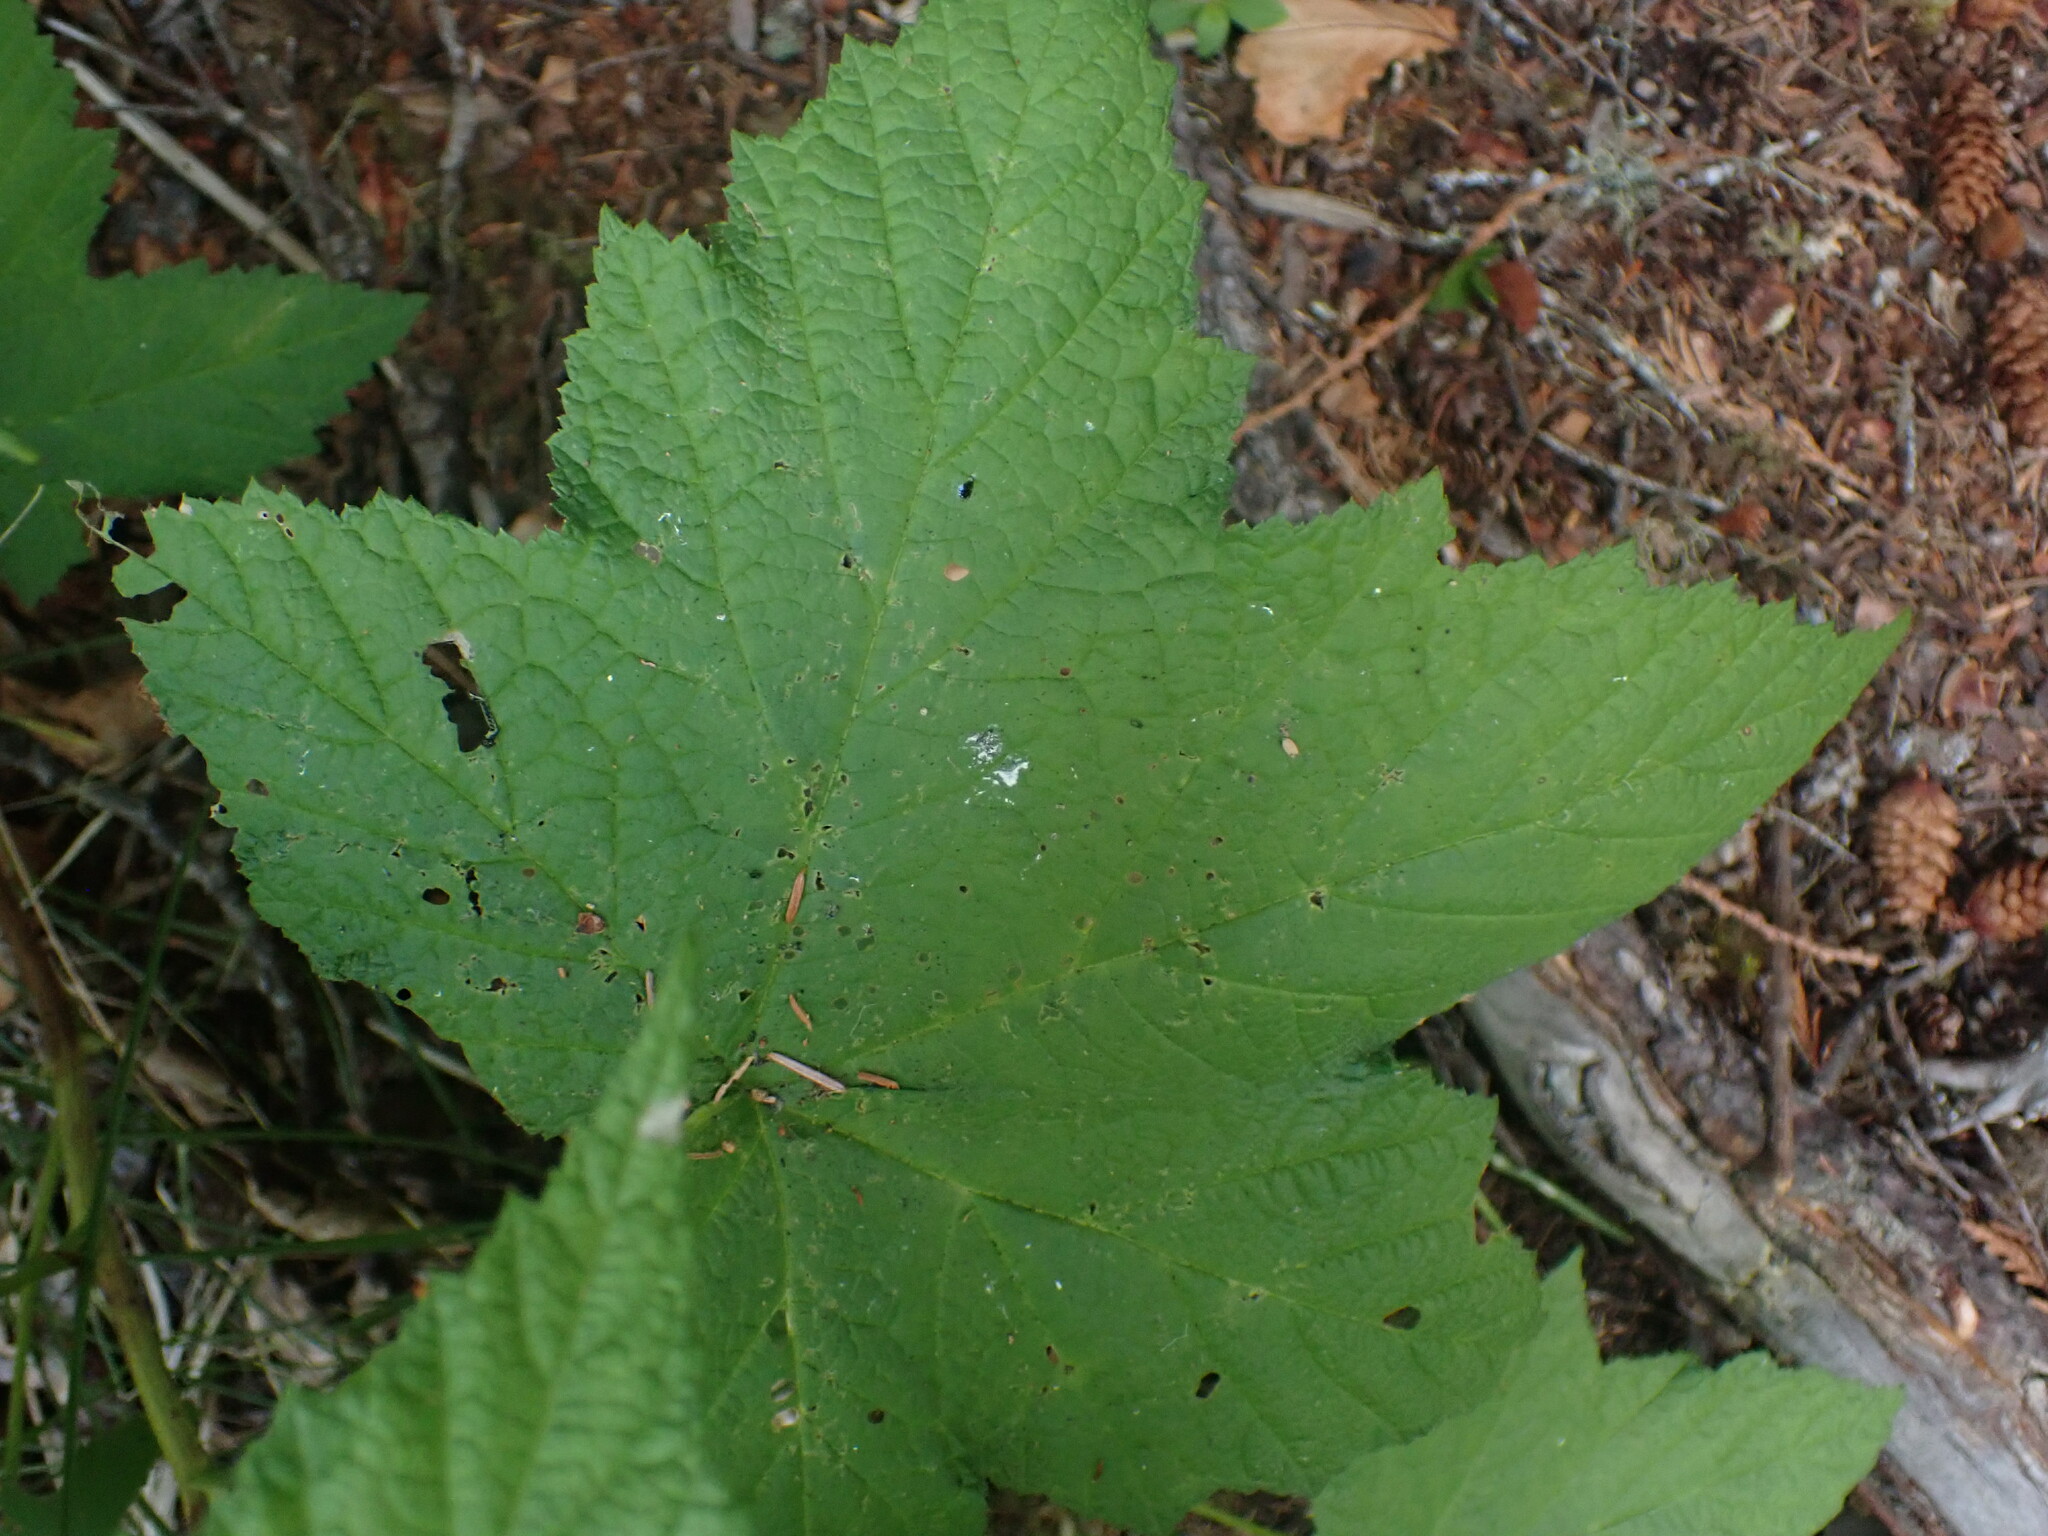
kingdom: Plantae
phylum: Tracheophyta
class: Magnoliopsida
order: Rosales
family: Rosaceae
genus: Rubus
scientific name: Rubus parviflorus
